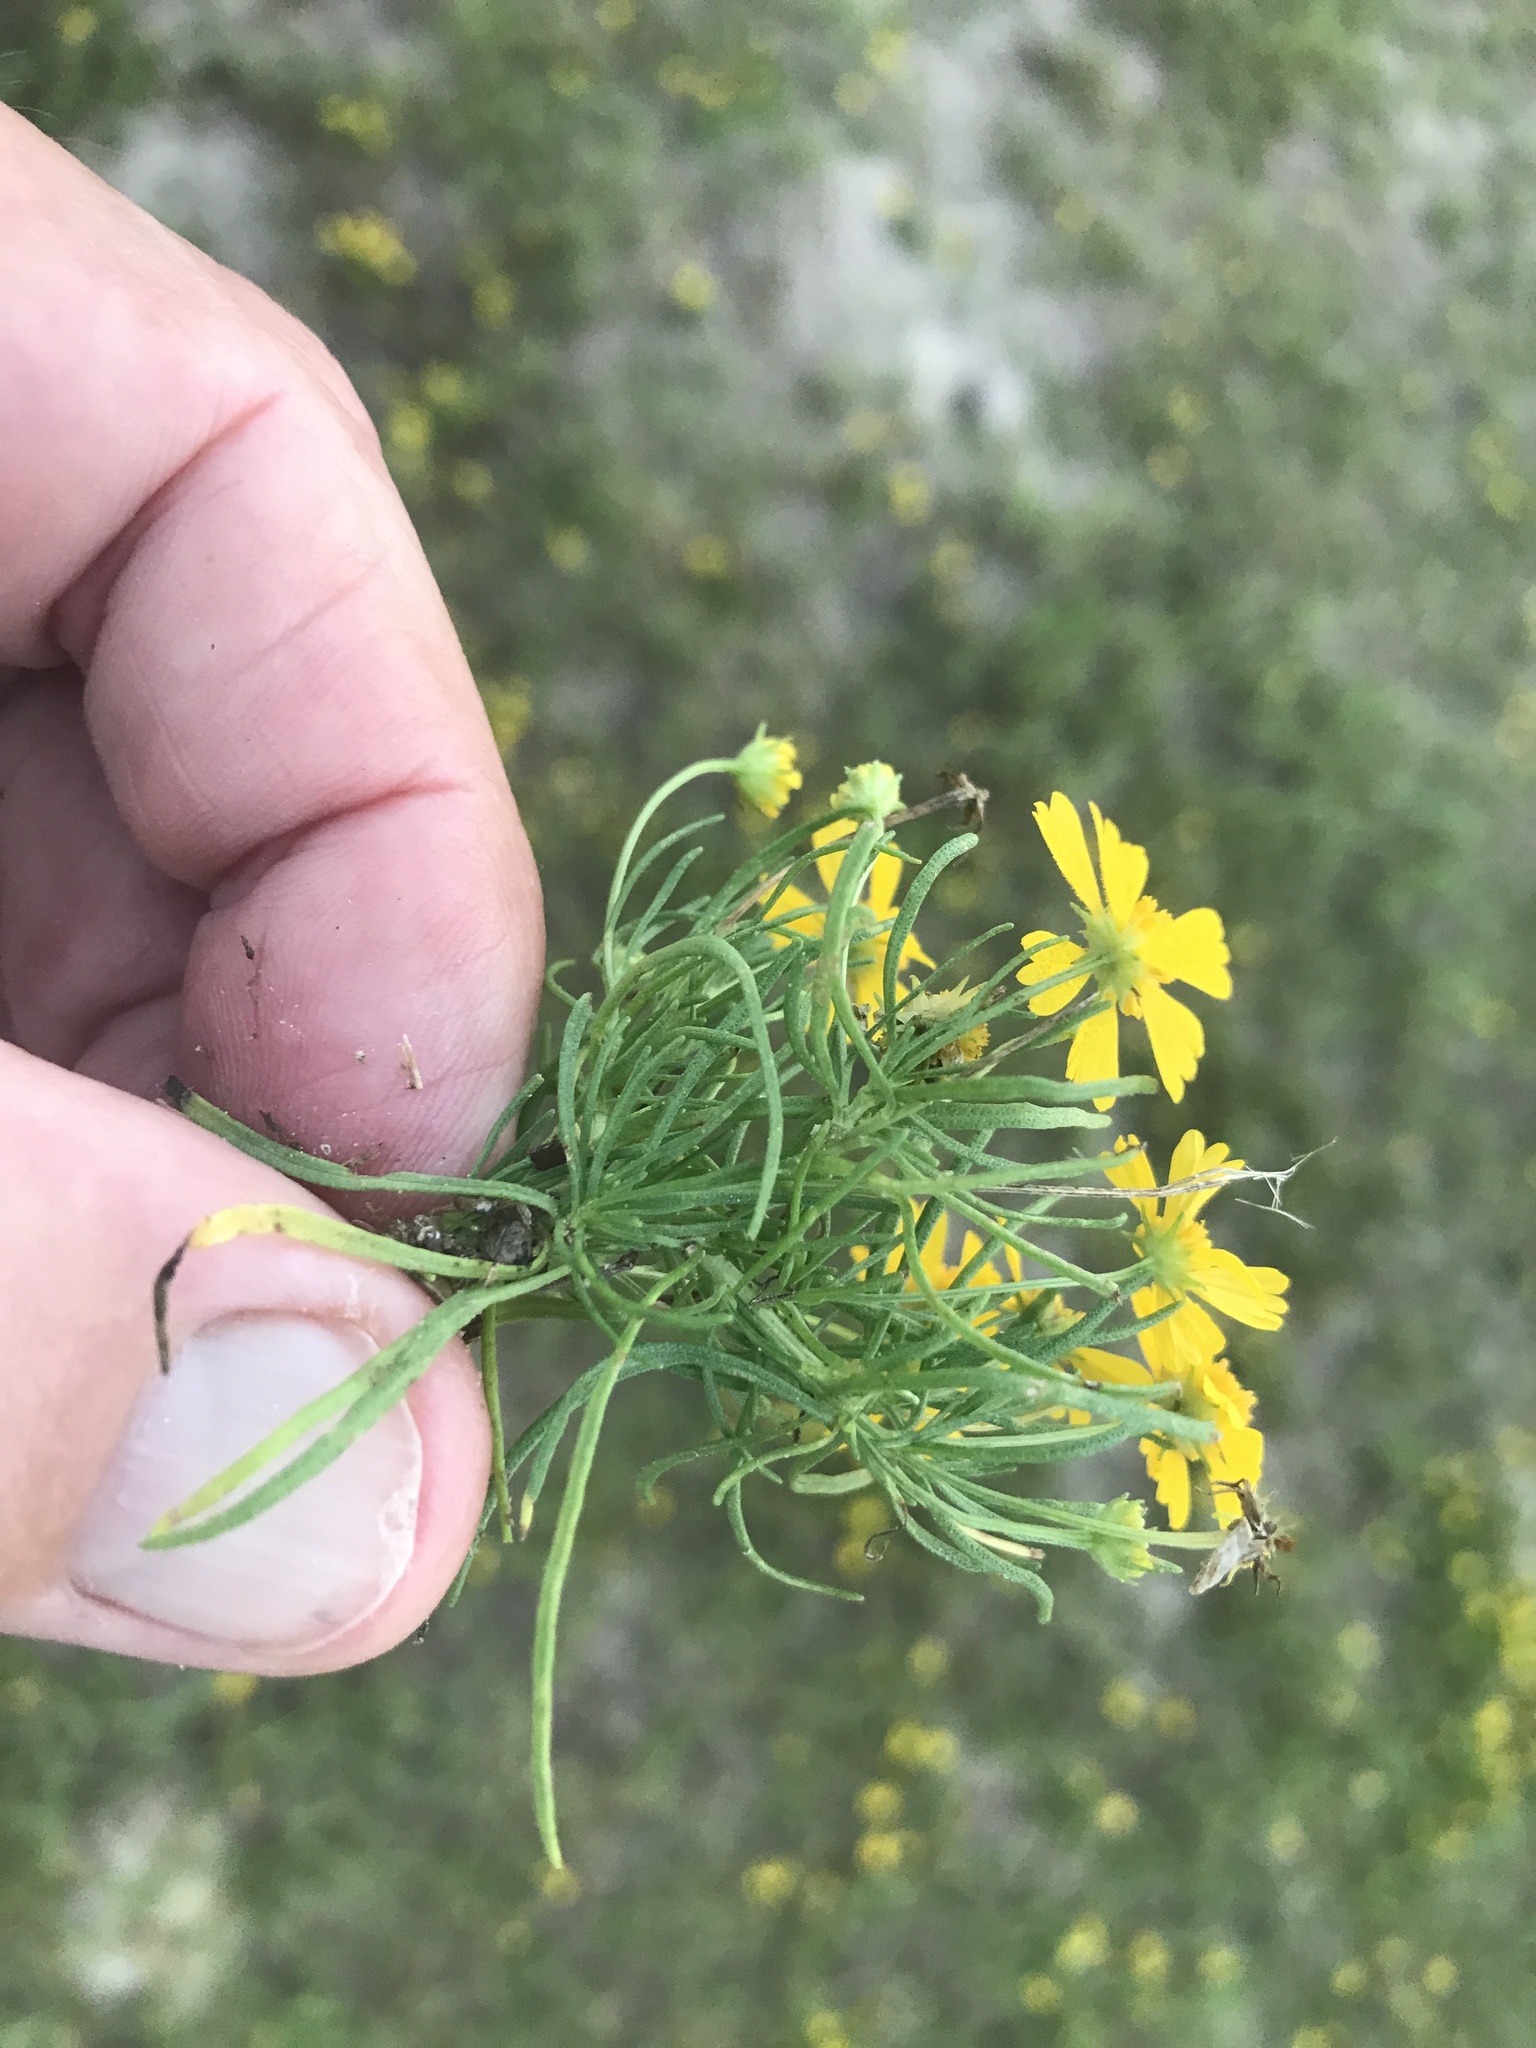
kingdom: Plantae
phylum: Tracheophyta
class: Magnoliopsida
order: Asterales
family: Asteraceae
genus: Helenium
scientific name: Helenium amarum
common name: Bitter sneezeweed
